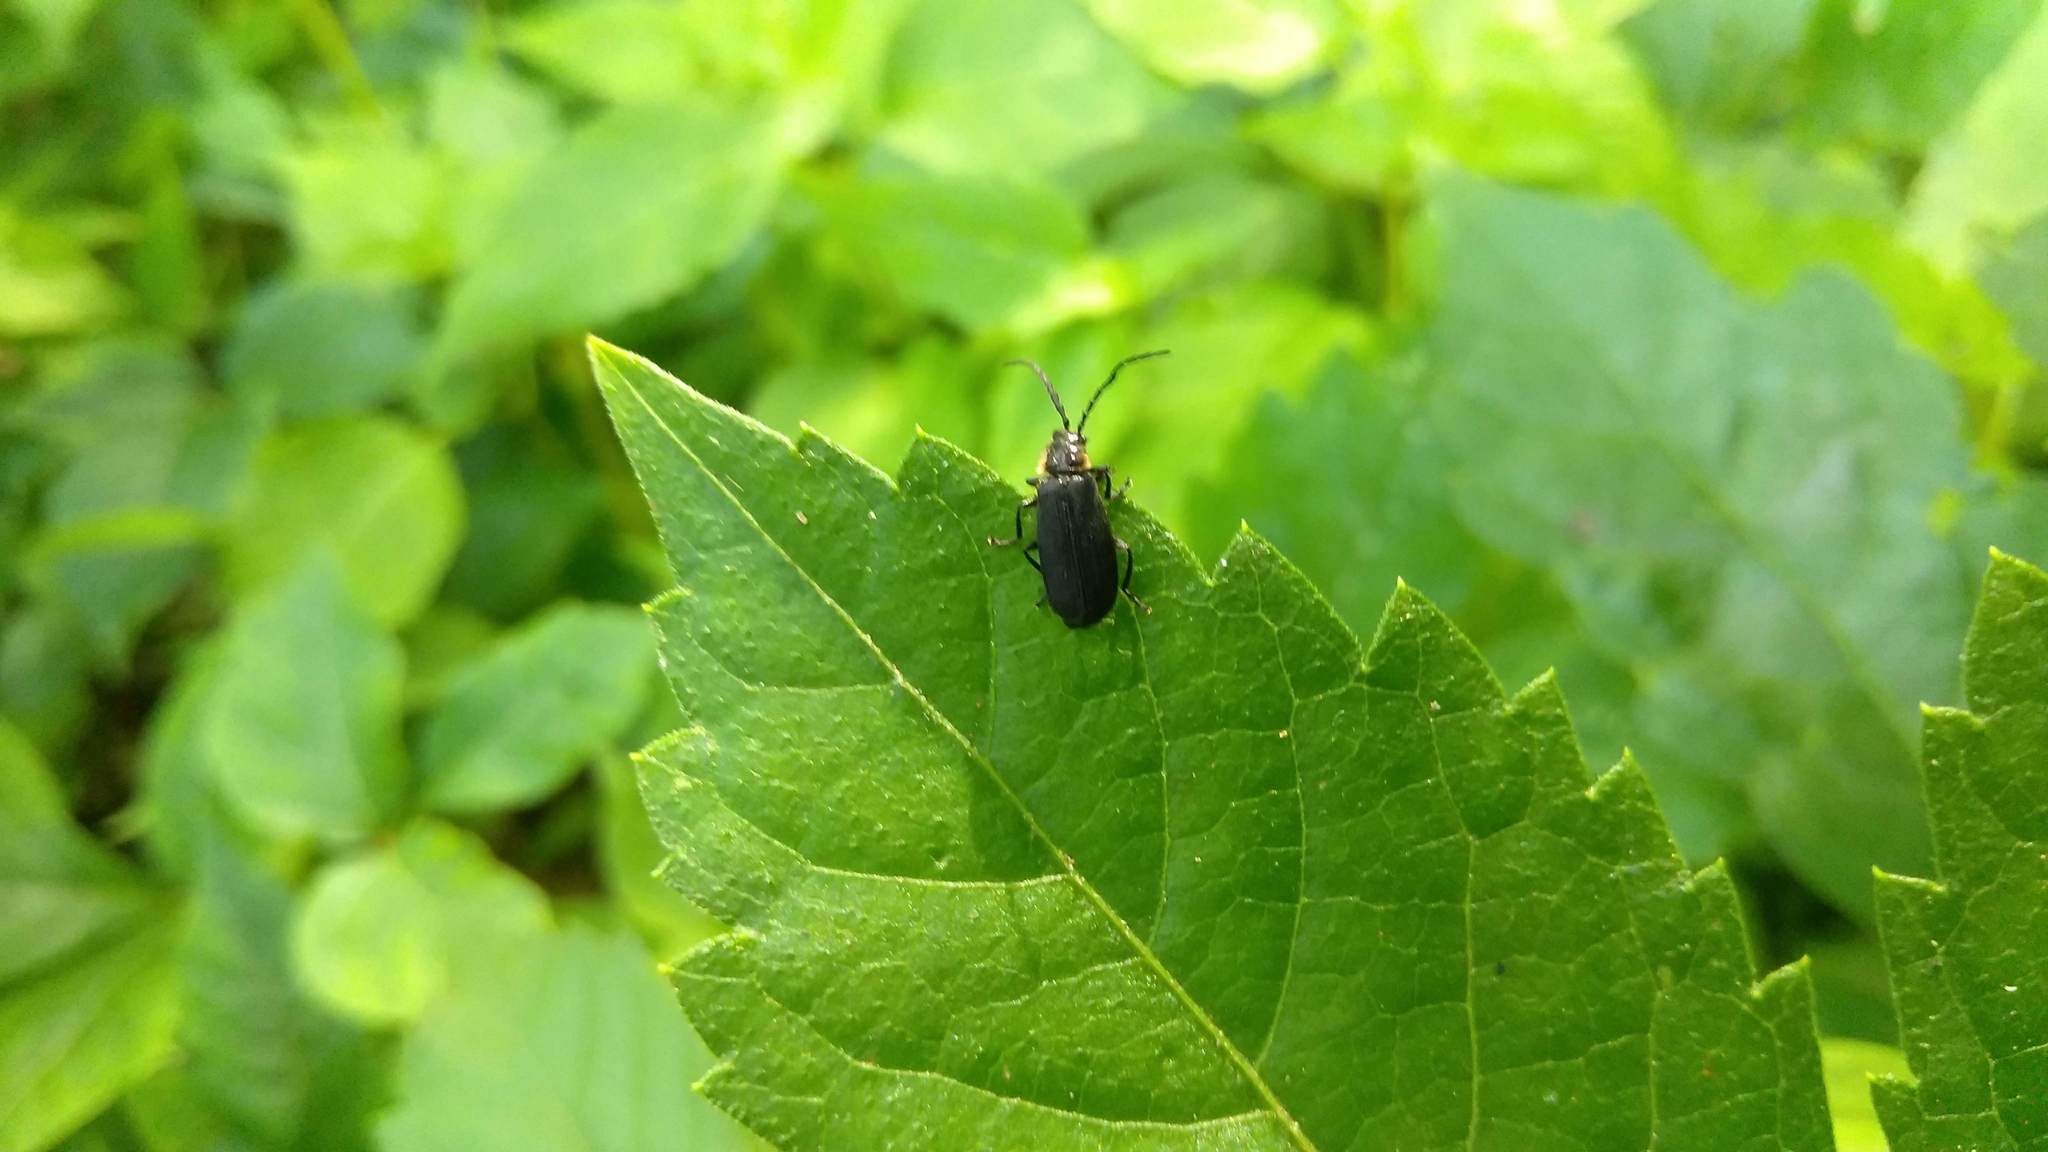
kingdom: Animalia
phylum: Arthropoda
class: Insecta
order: Coleoptera
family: Cantharidae
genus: Polemius
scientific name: Polemius laticornis
